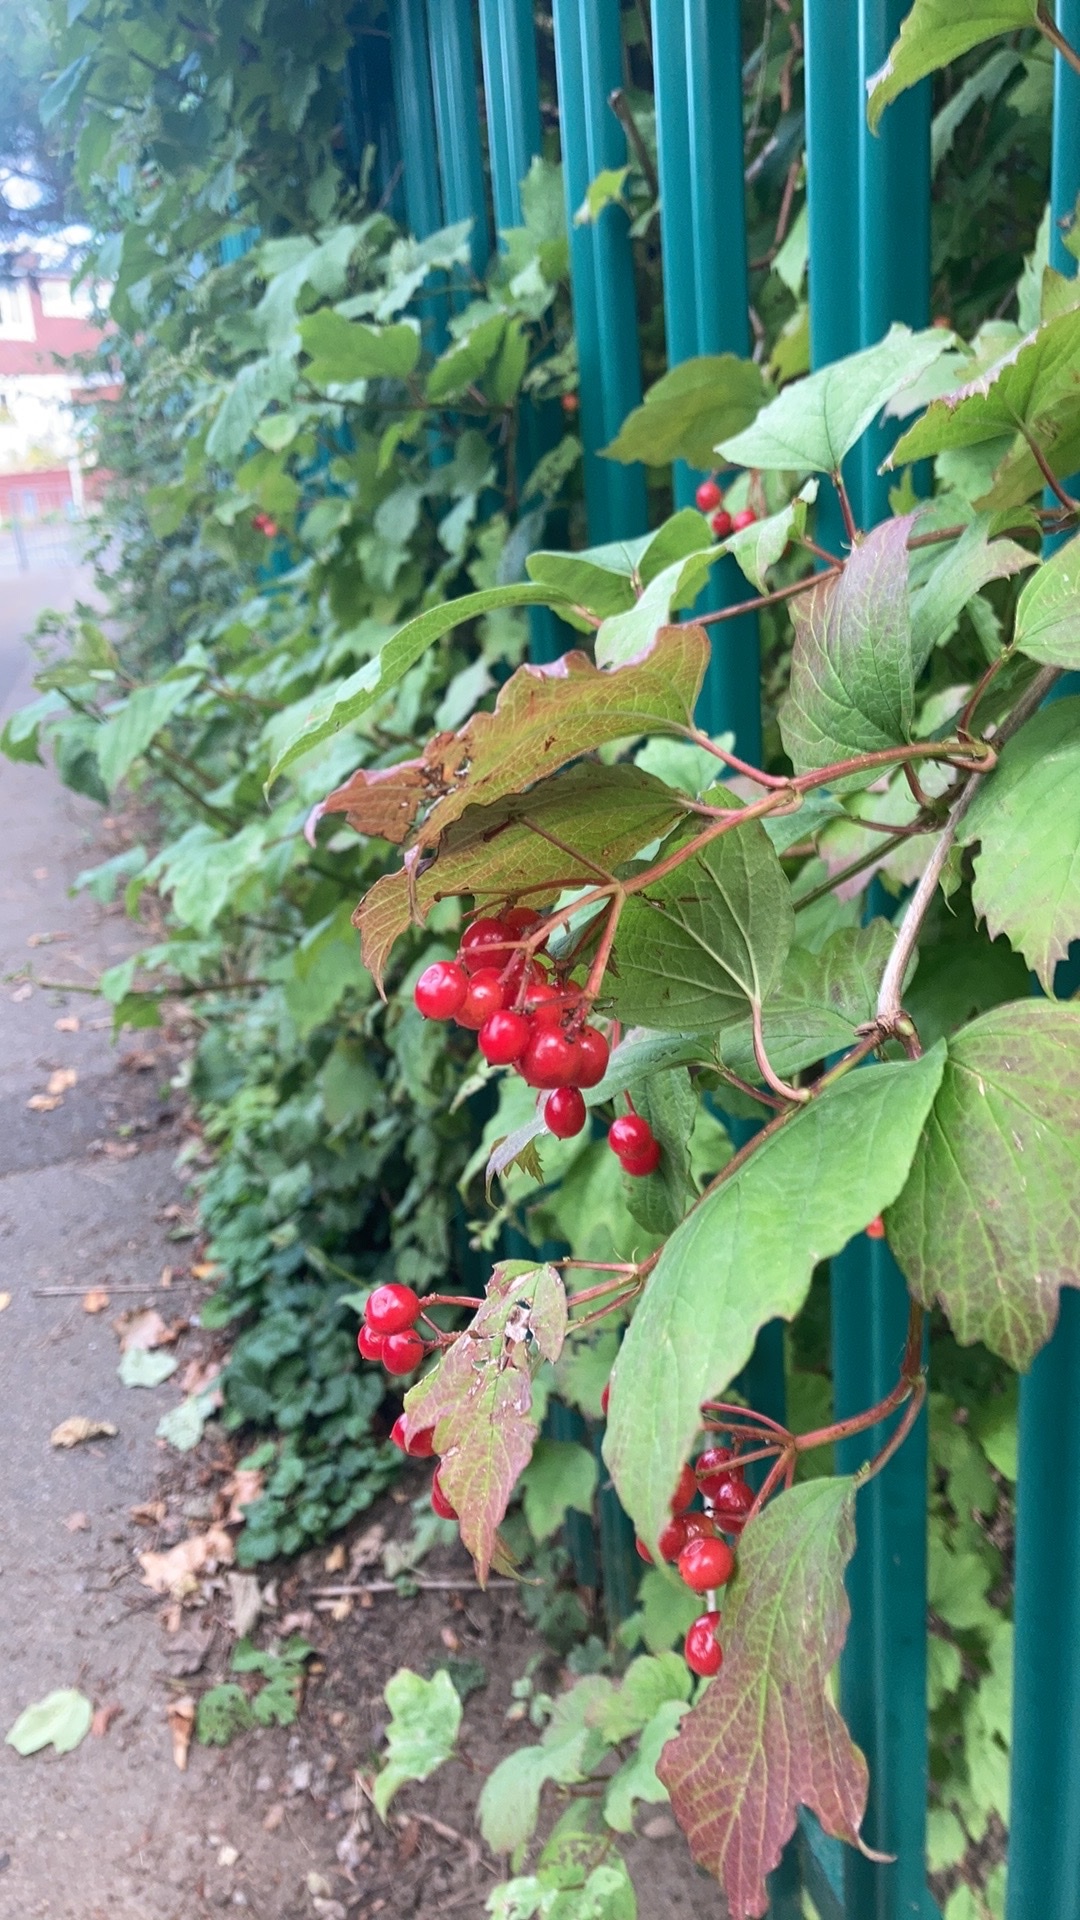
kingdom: Plantae
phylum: Tracheophyta
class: Magnoliopsida
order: Dipsacales
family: Viburnaceae
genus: Viburnum
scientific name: Viburnum opulus
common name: Guelder-rose
